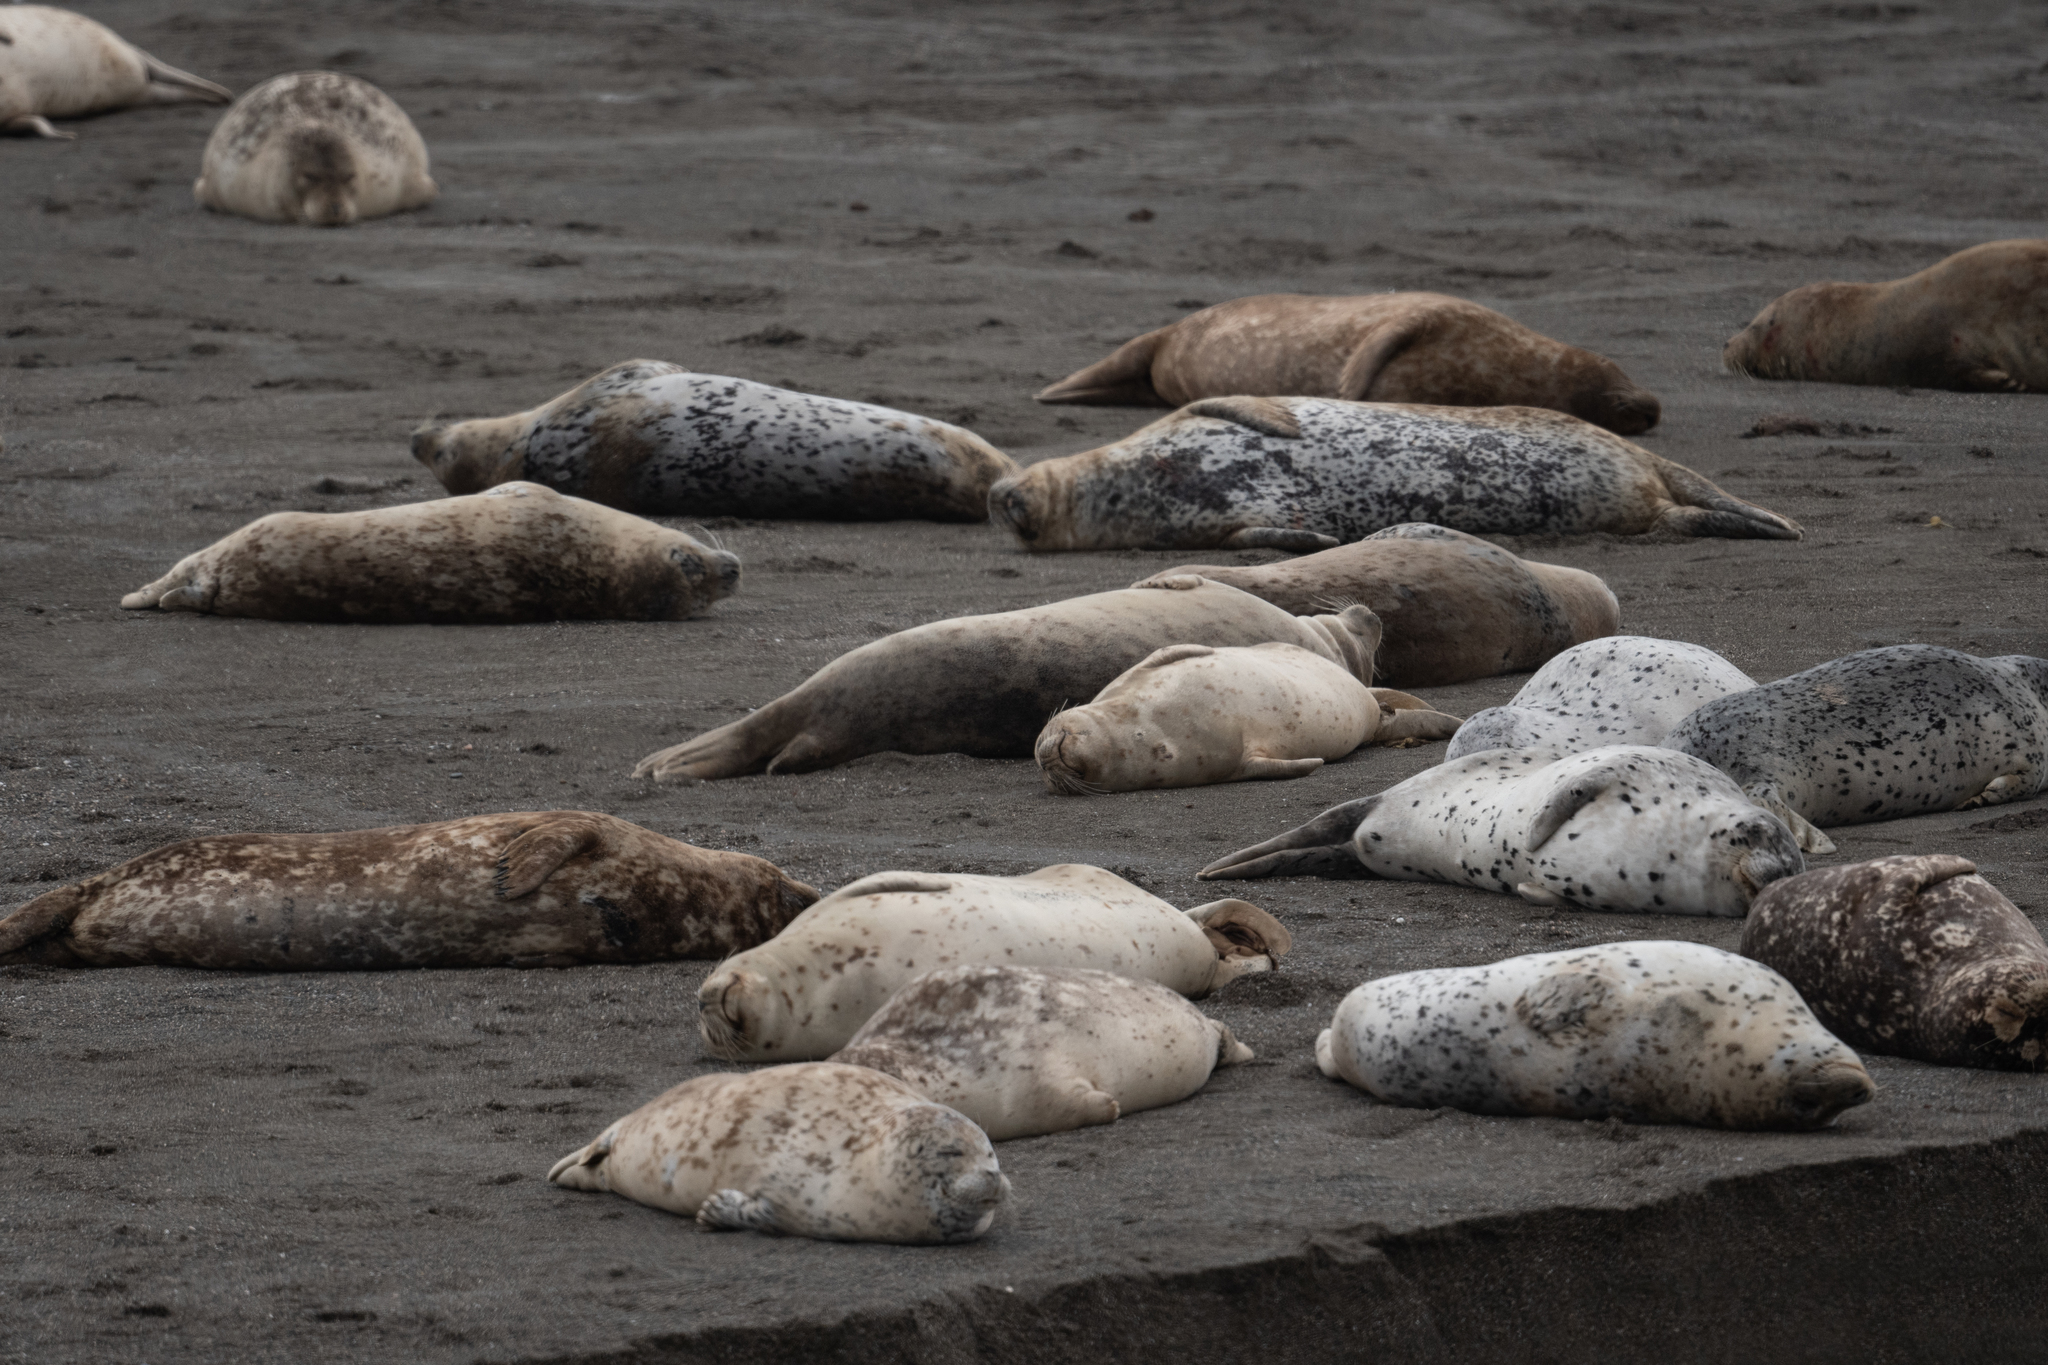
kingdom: Animalia
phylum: Chordata
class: Mammalia
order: Carnivora
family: Phocidae
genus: Phoca
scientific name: Phoca vitulina
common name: Harbor seal
